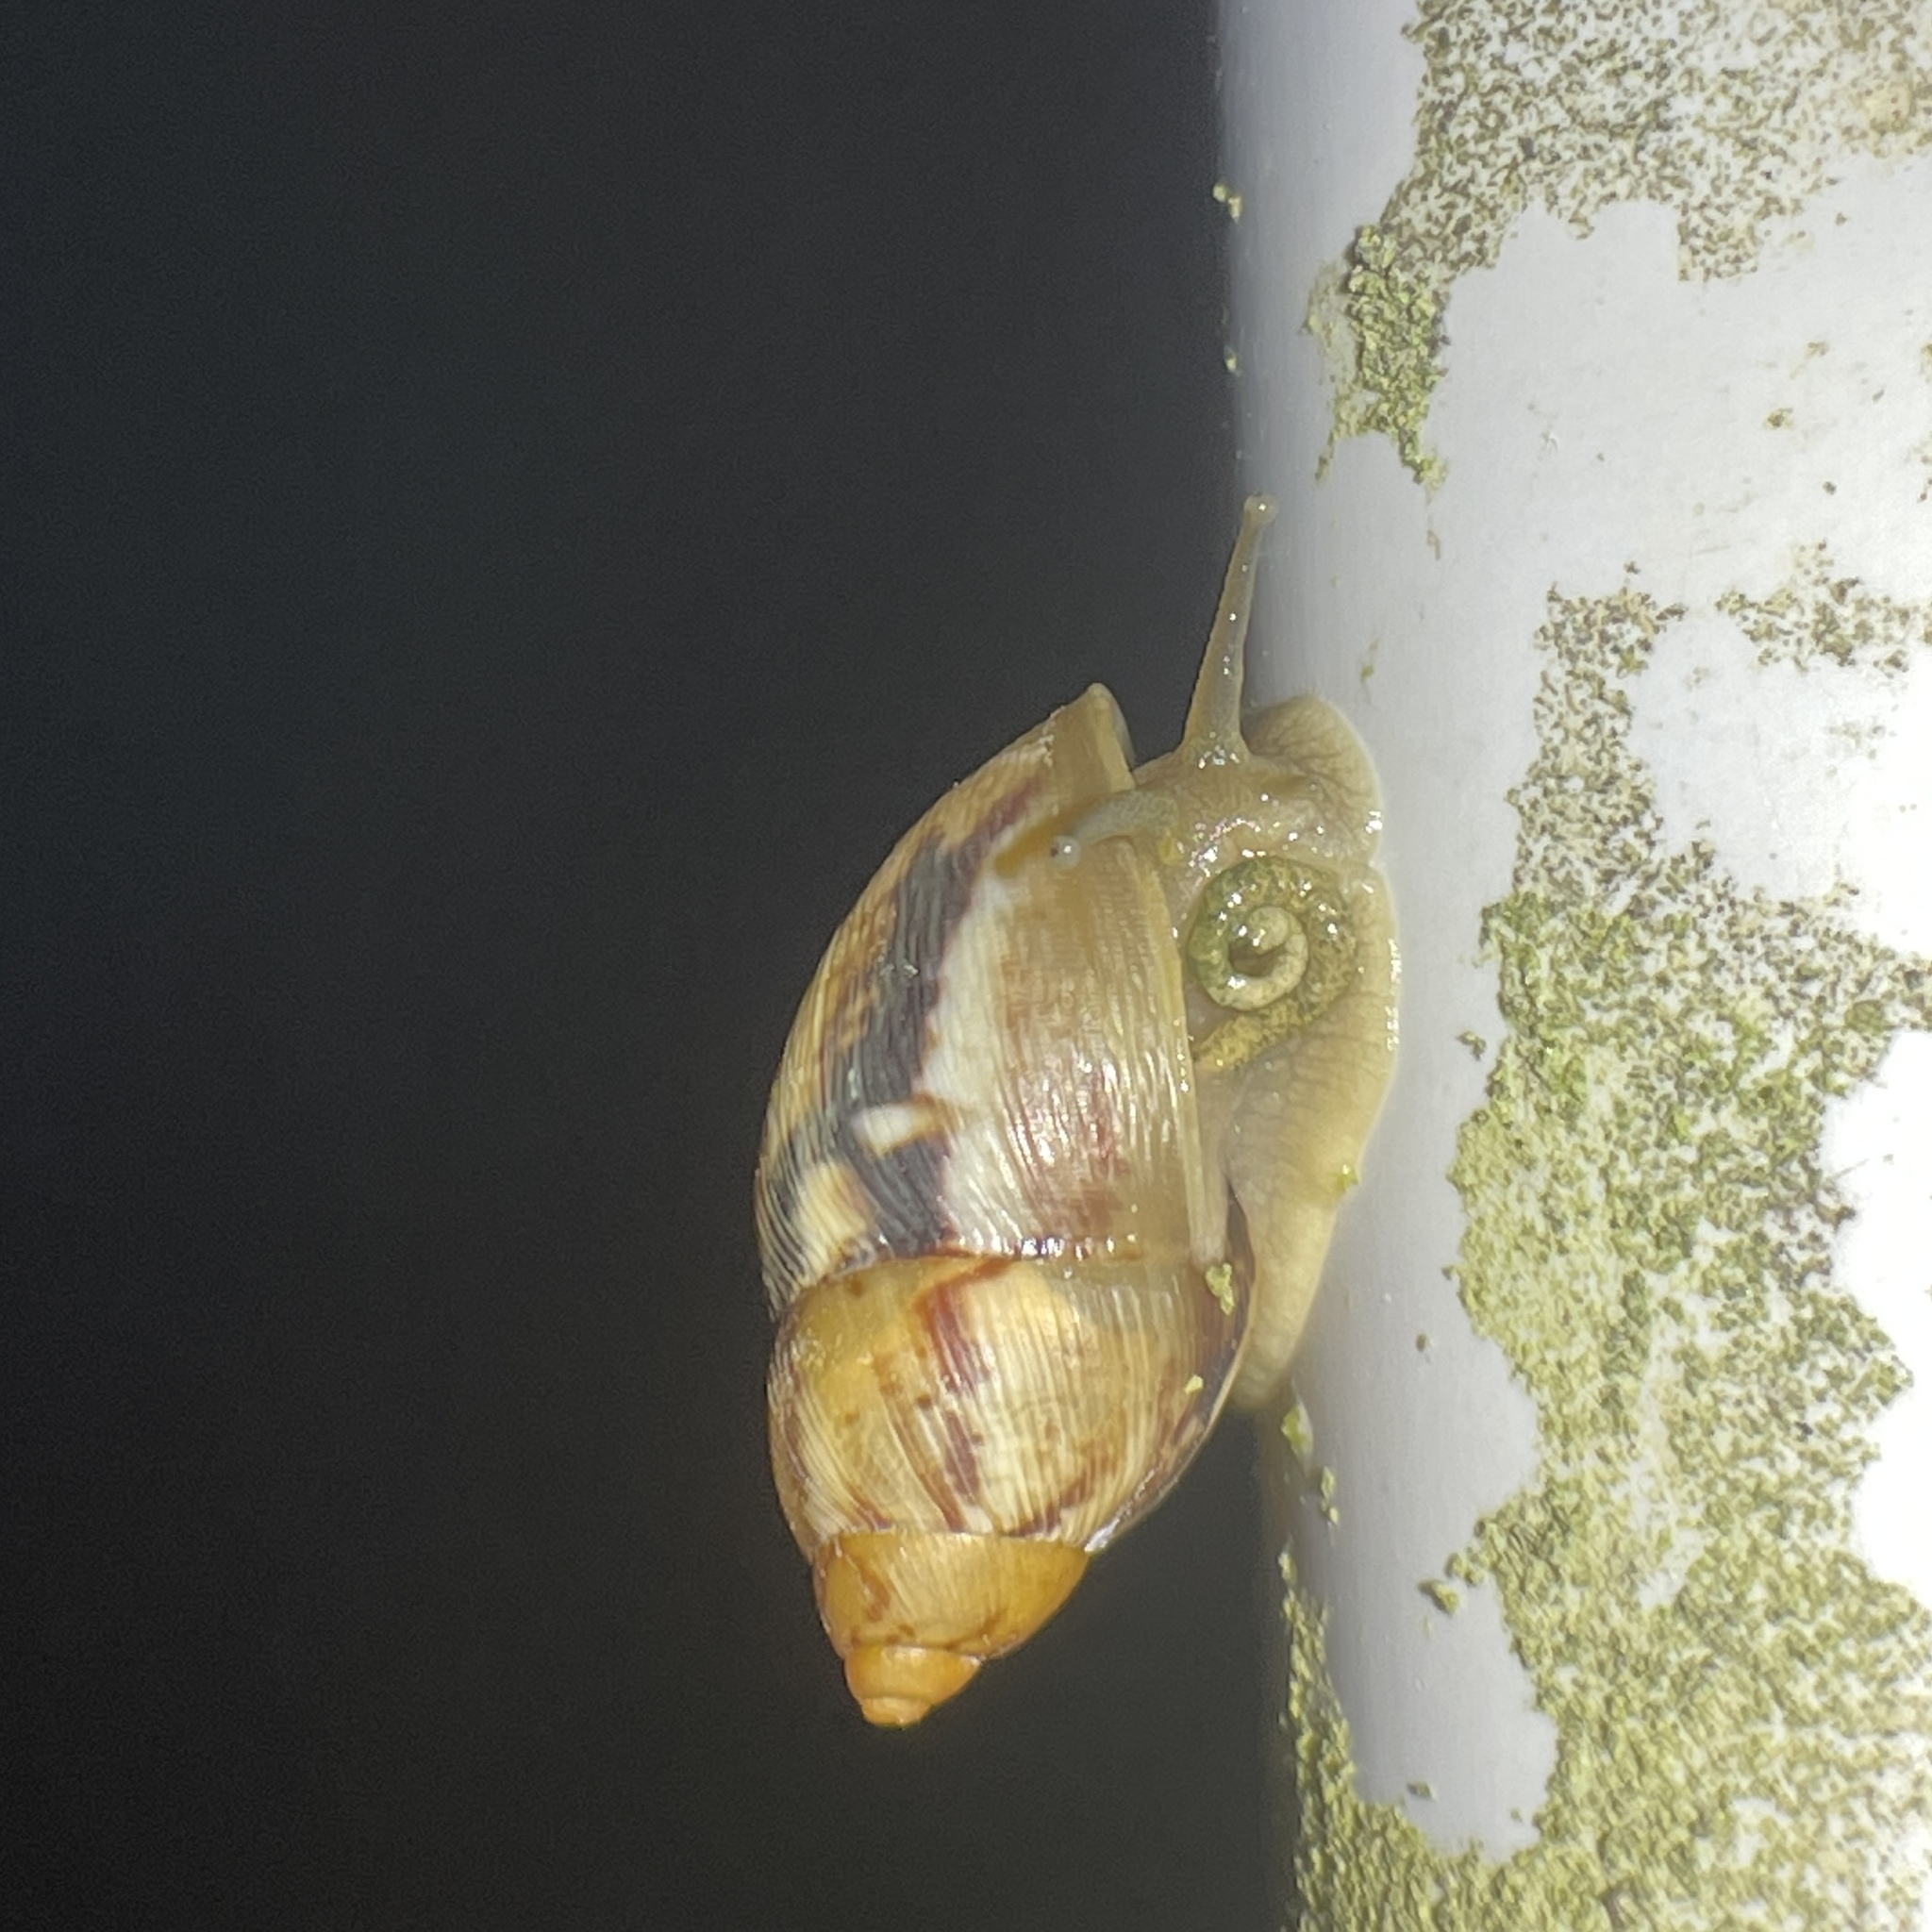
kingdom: Animalia
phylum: Mollusca
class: Gastropoda
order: Stylommatophora
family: Amphibulimidae
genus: Plekocheilus
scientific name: Plekocheilus glaber
